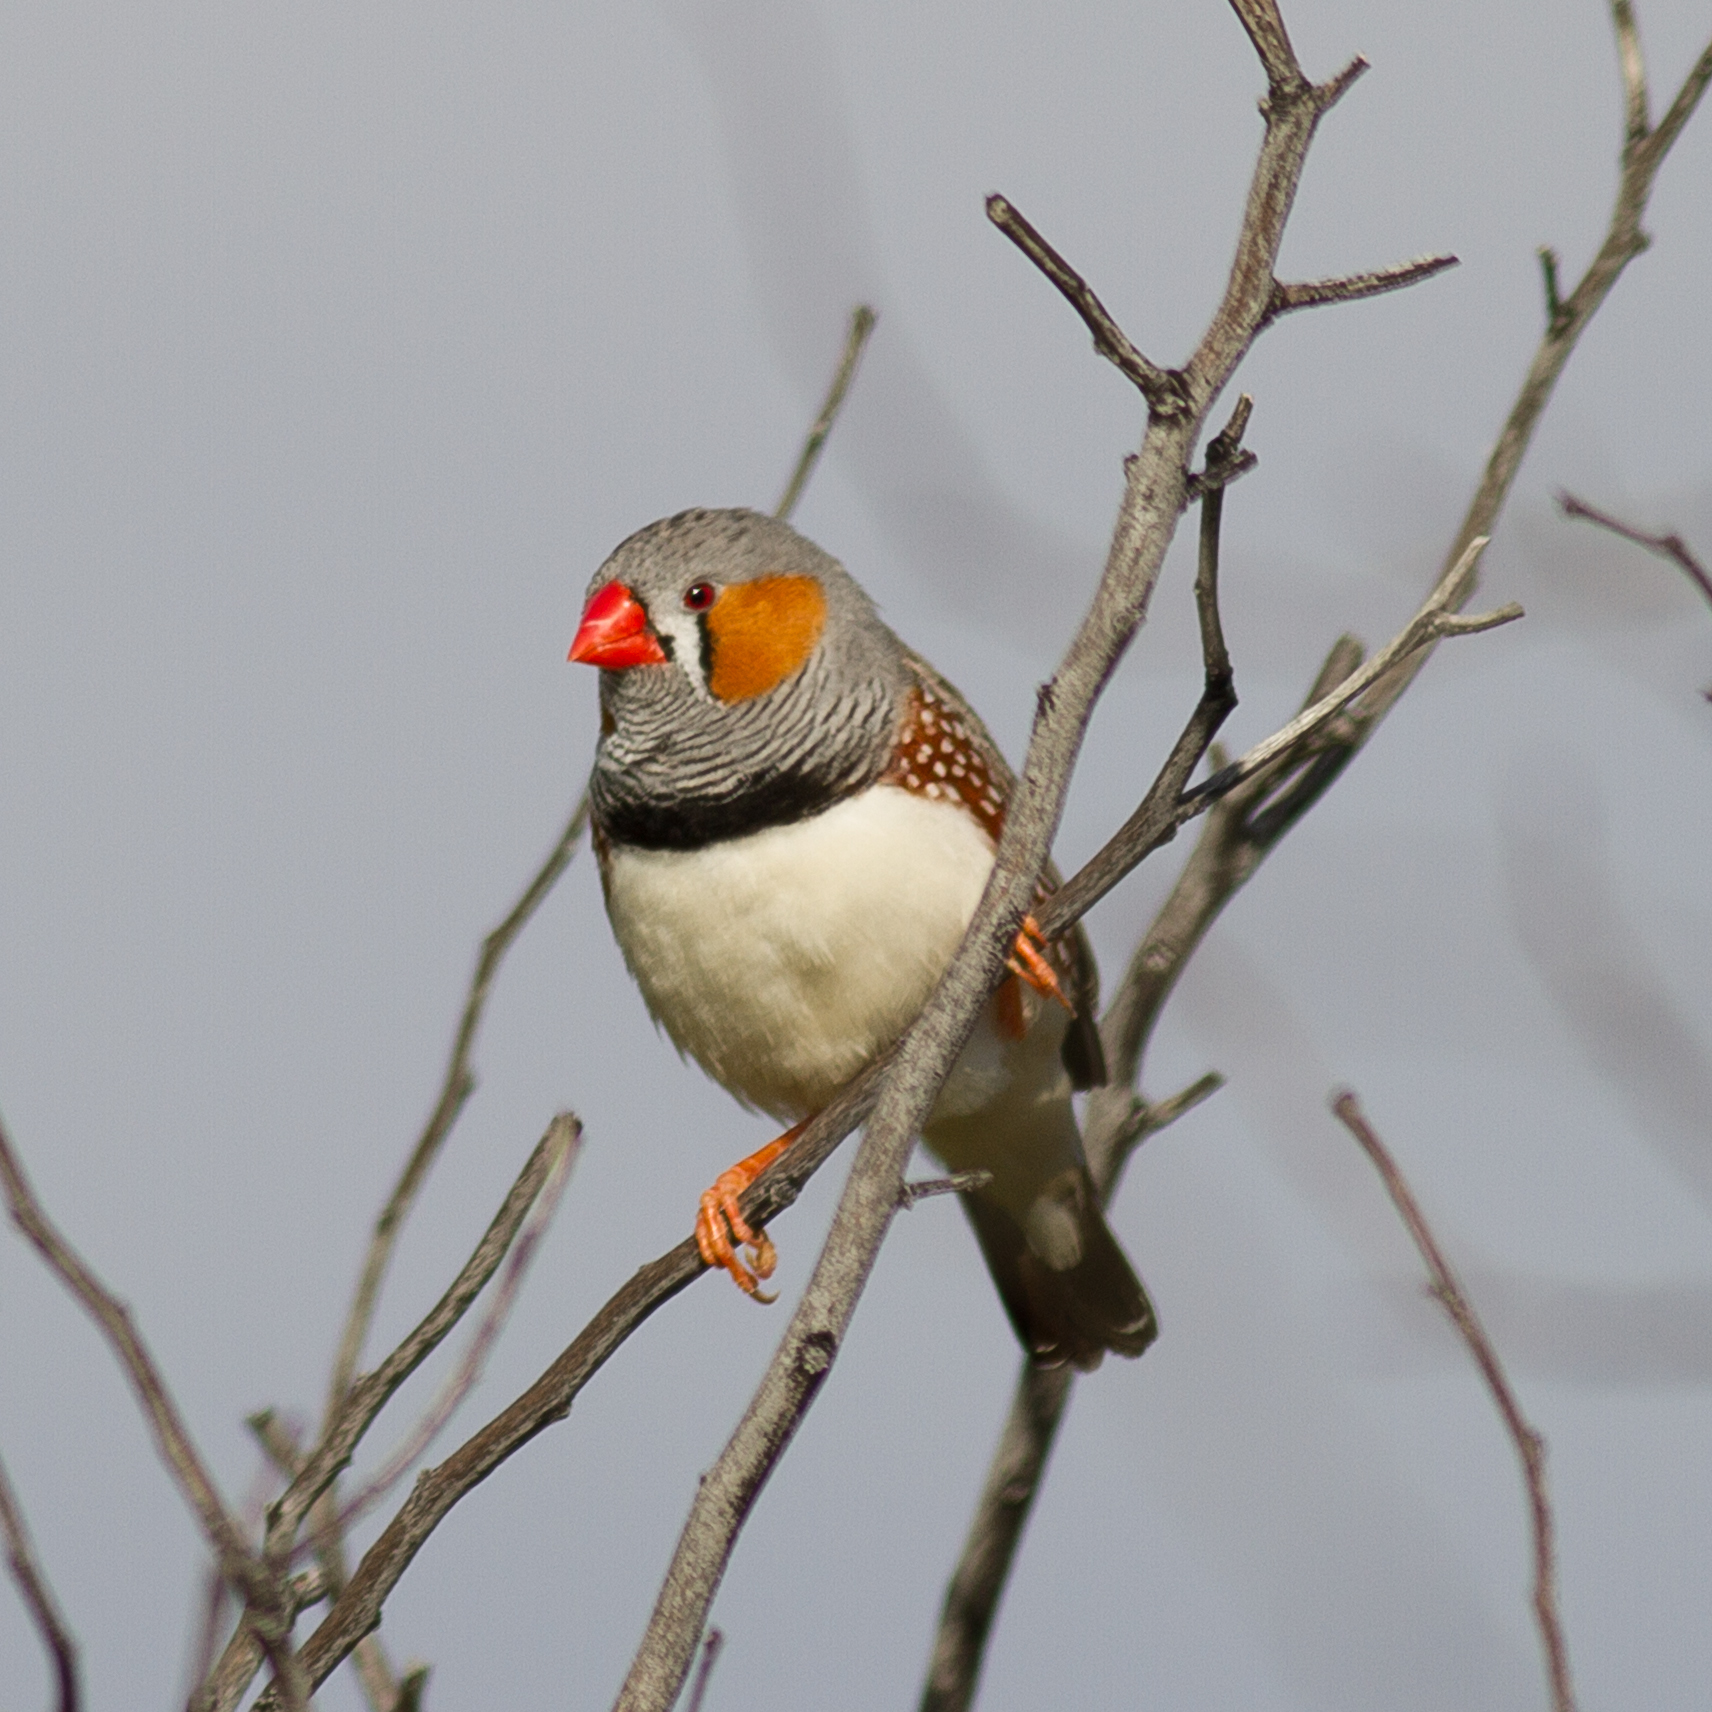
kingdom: Animalia
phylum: Chordata
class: Aves
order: Passeriformes
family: Estrildidae
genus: Taeniopygia
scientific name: Taeniopygia guttata
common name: Zebra finch
